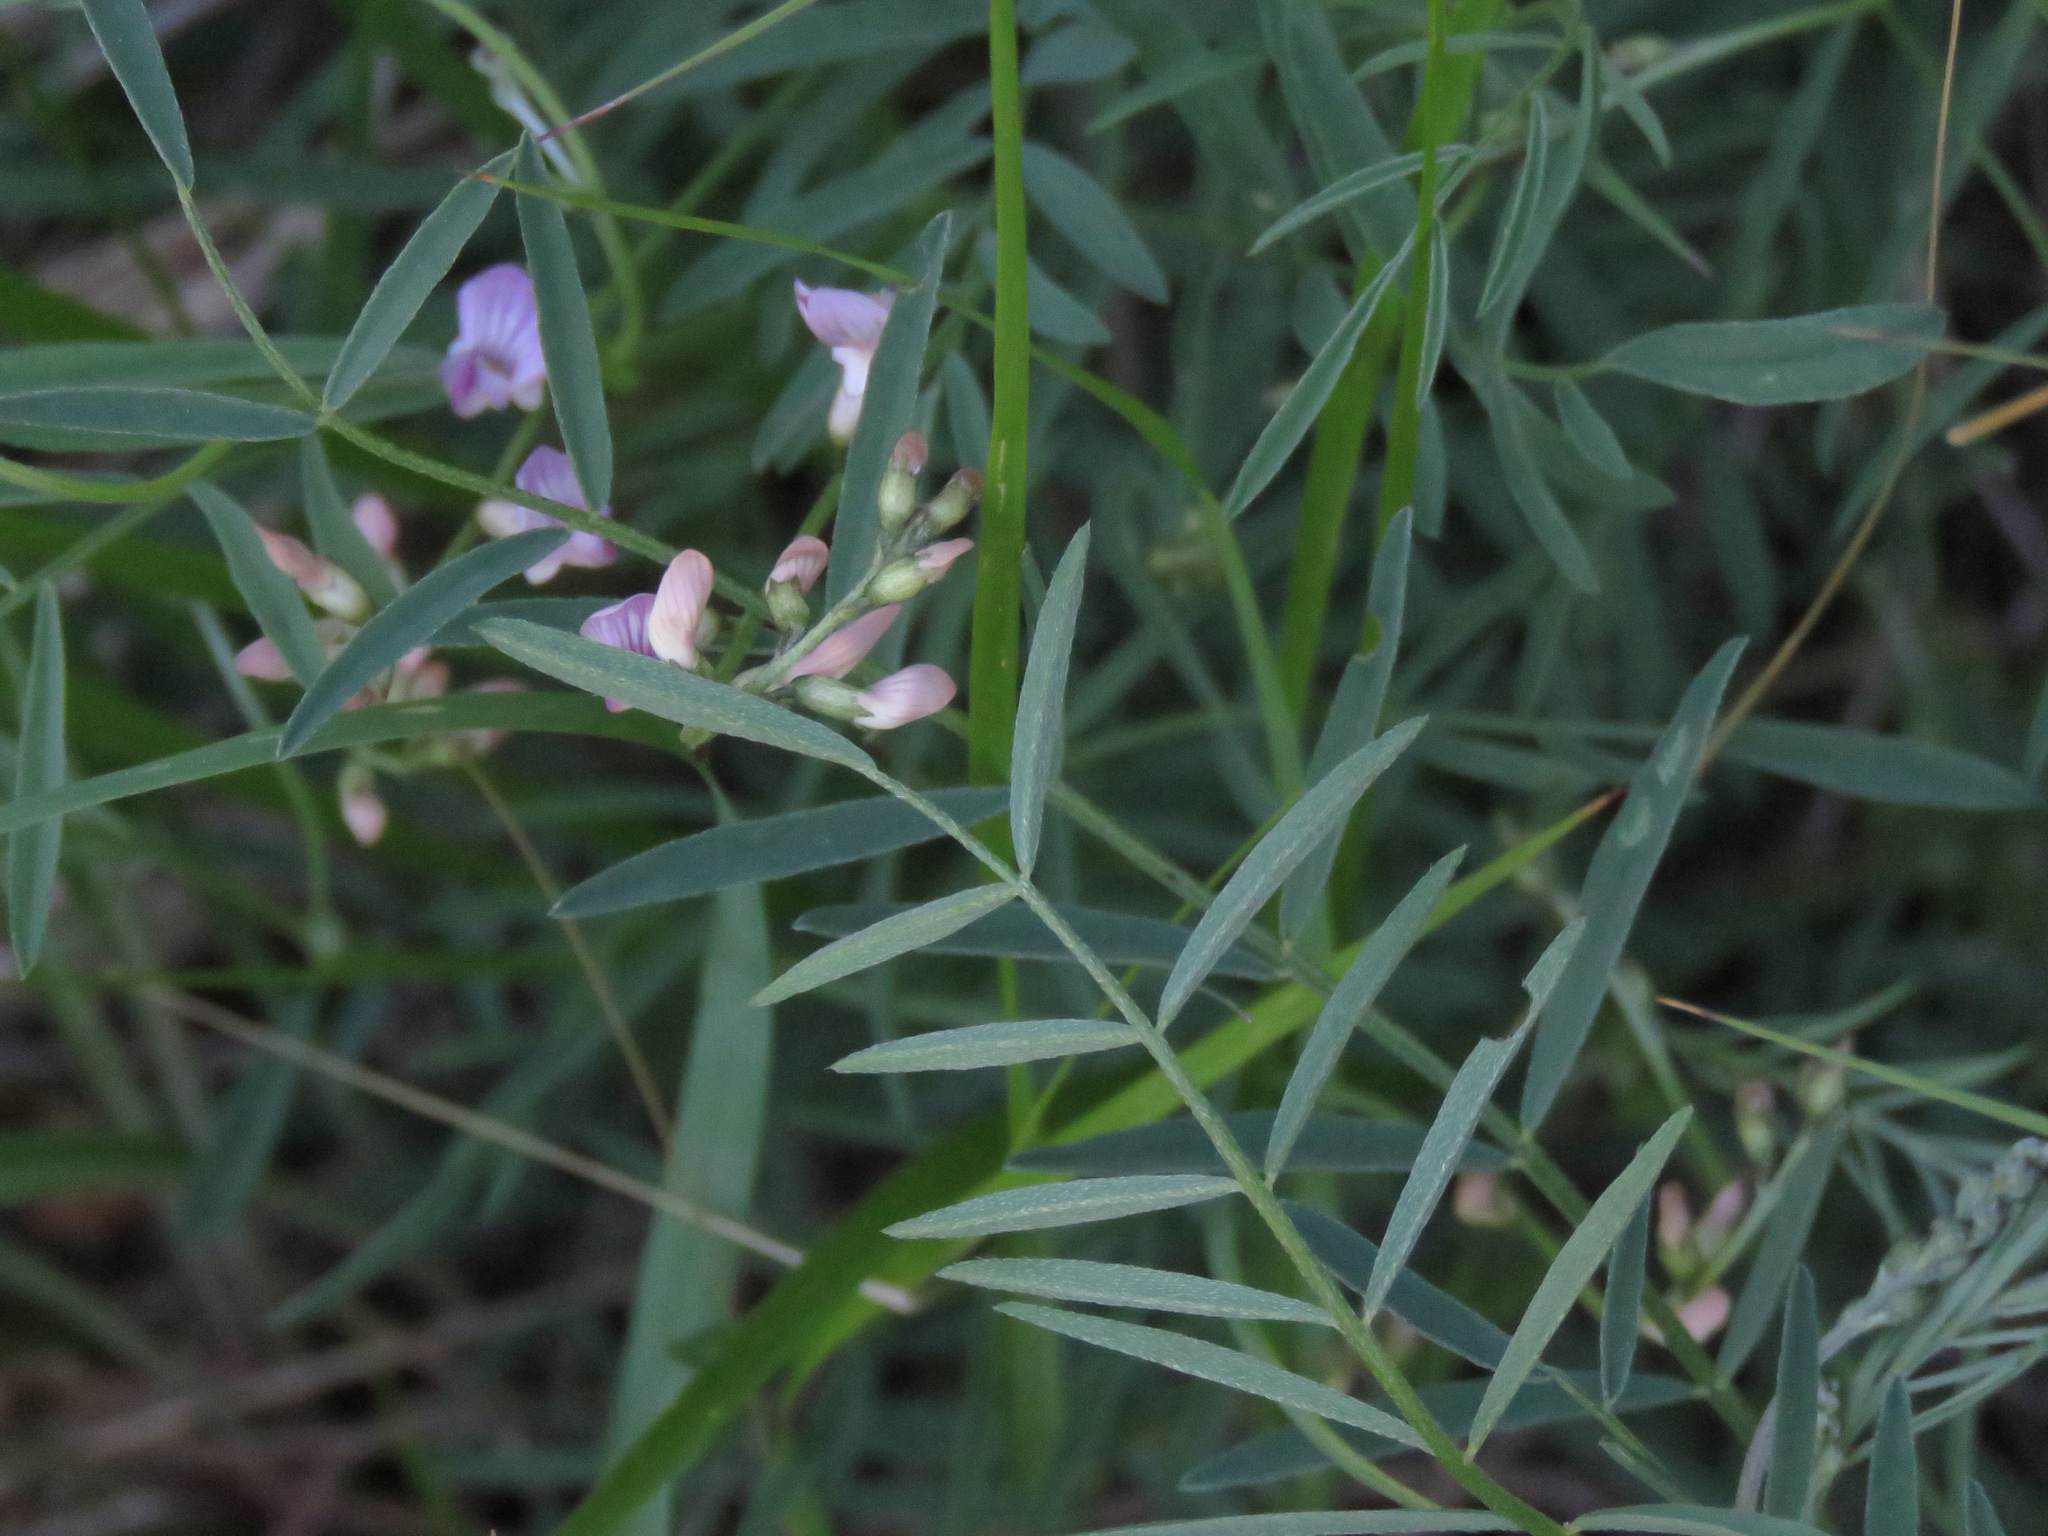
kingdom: Plantae
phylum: Tracheophyta
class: Magnoliopsida
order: Fabales
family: Fabaceae
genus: Astragalus
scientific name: Astragalus miser
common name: Timber milkvetch
